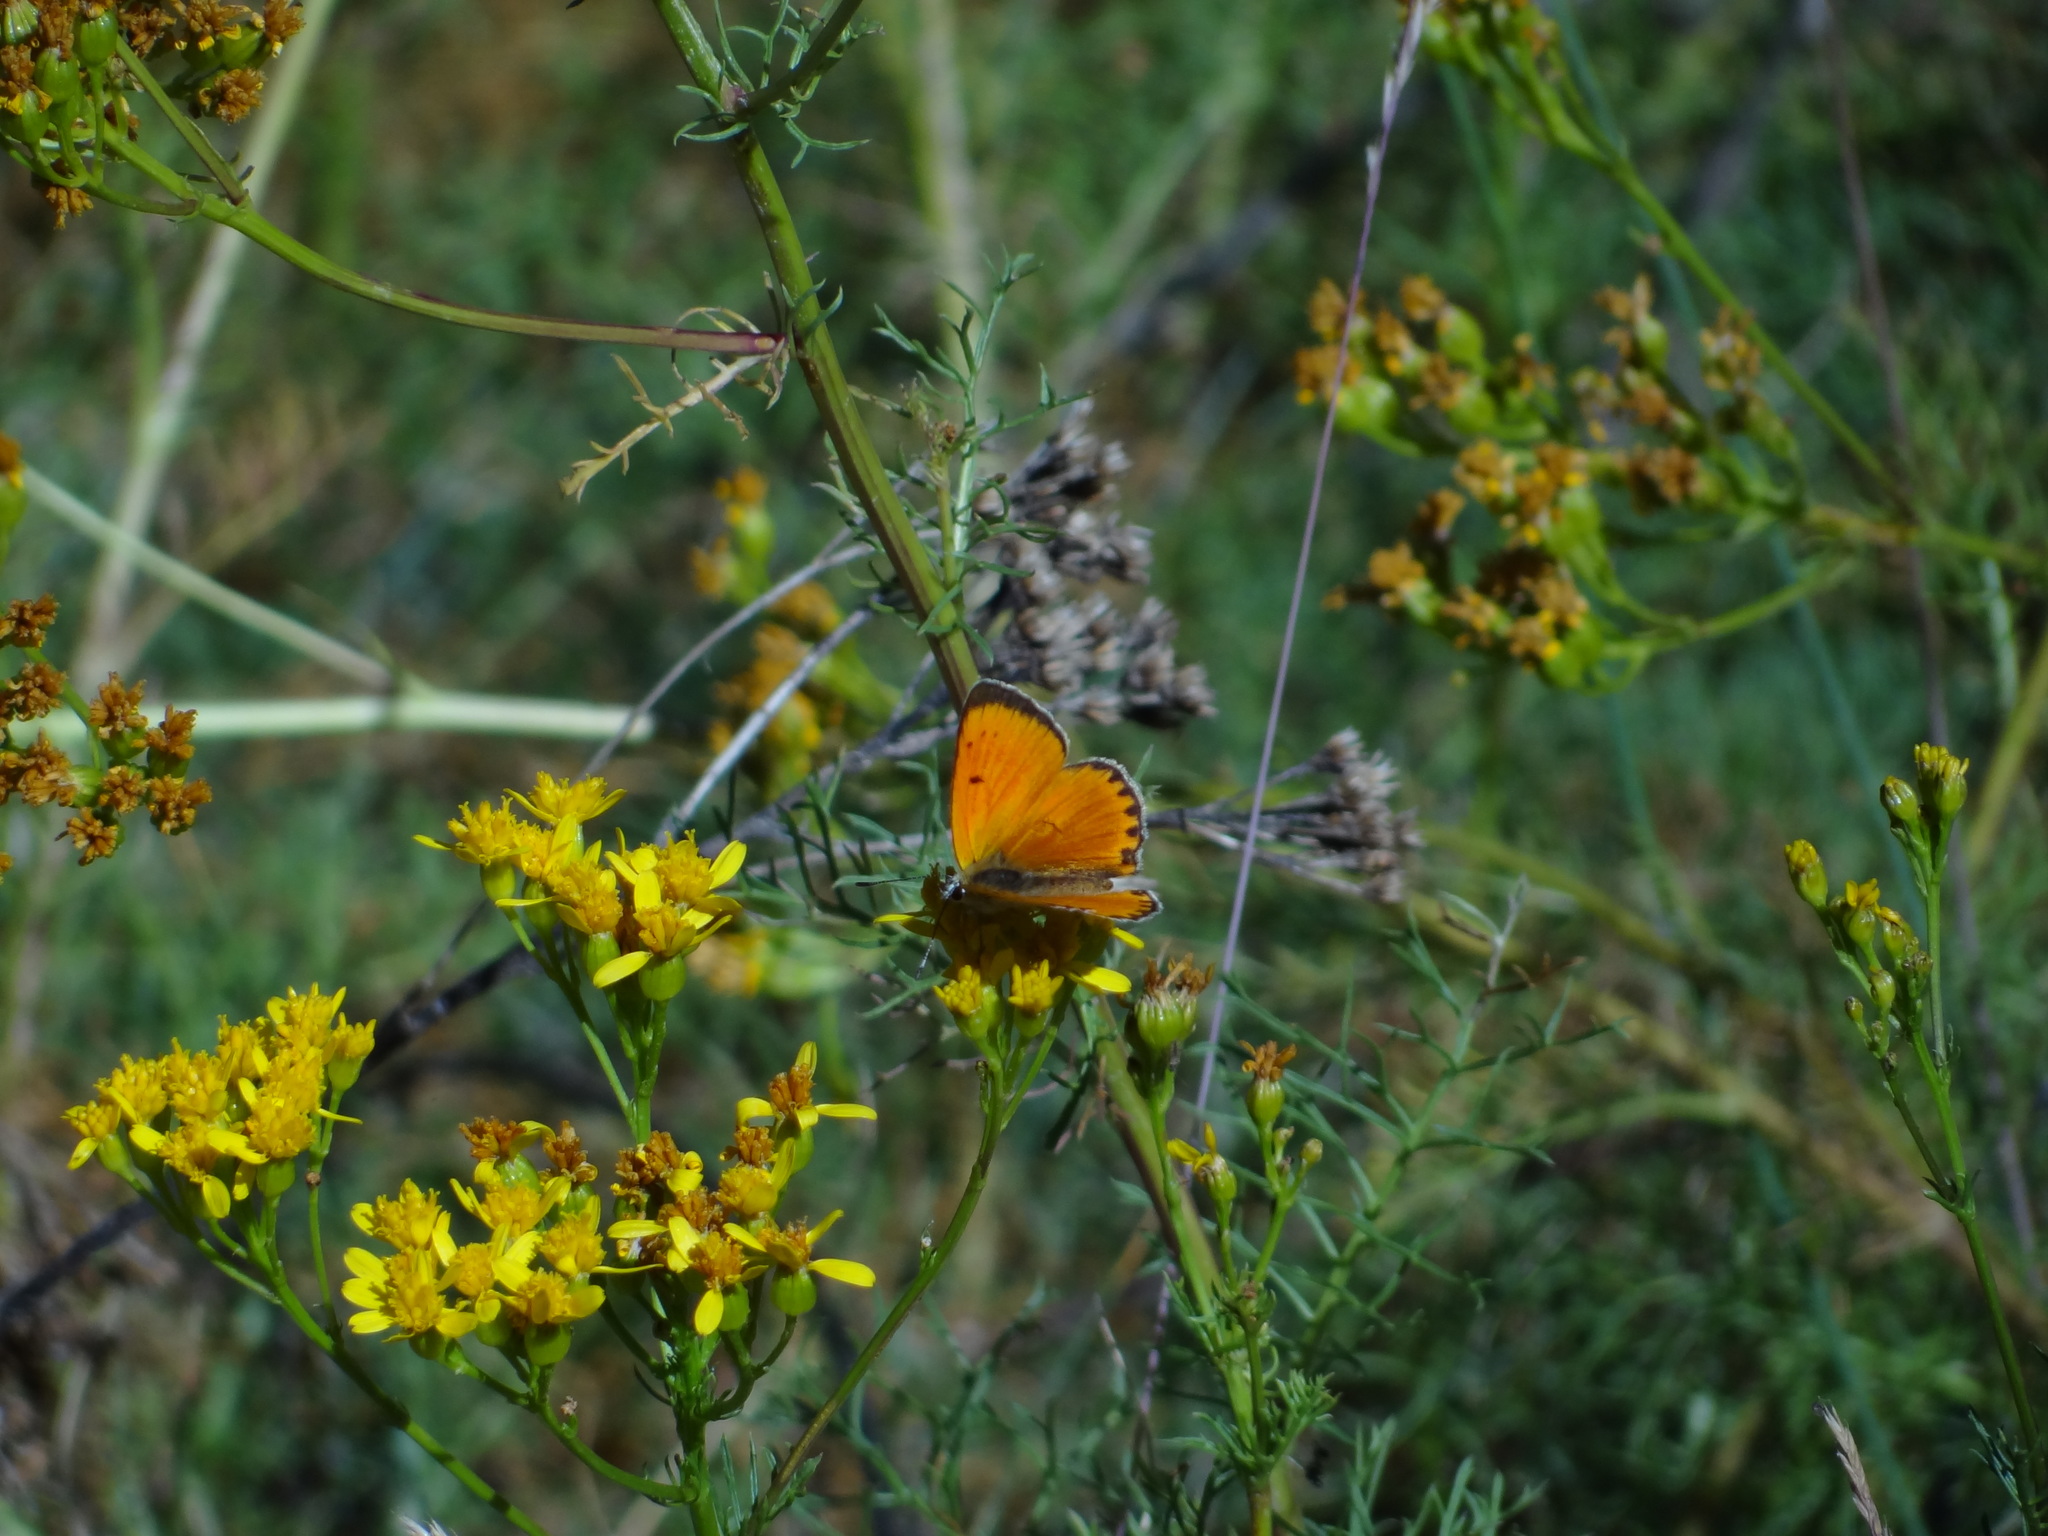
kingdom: Animalia
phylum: Arthropoda
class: Insecta
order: Lepidoptera
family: Lycaenidae
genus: Lycaena
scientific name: Lycaena virgaureae
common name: Scarce copper
